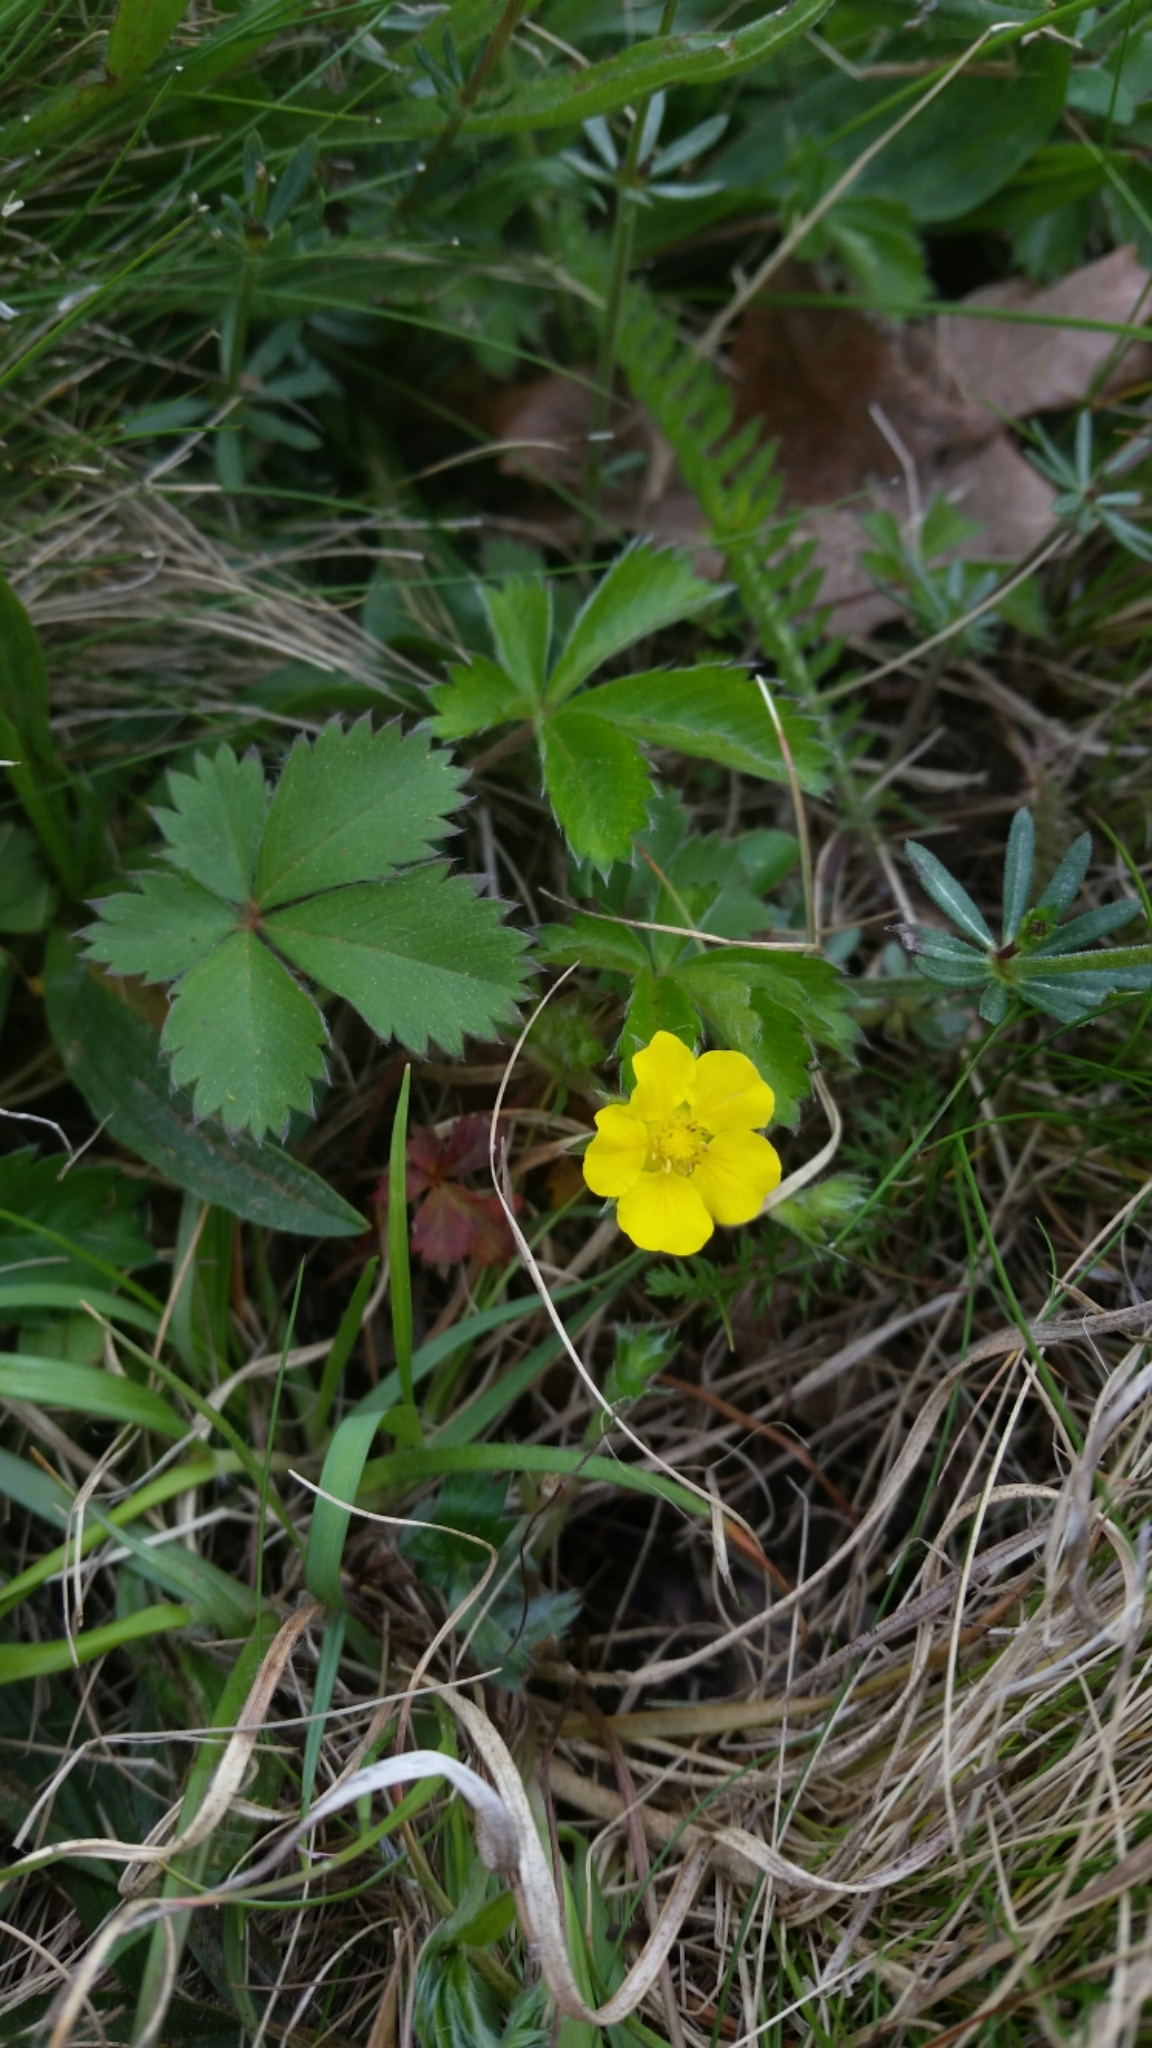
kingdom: Plantae
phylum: Tracheophyta
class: Magnoliopsida
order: Rosales
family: Rosaceae
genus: Potentilla
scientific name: Potentilla canadensis
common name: Canada cinquefoil
